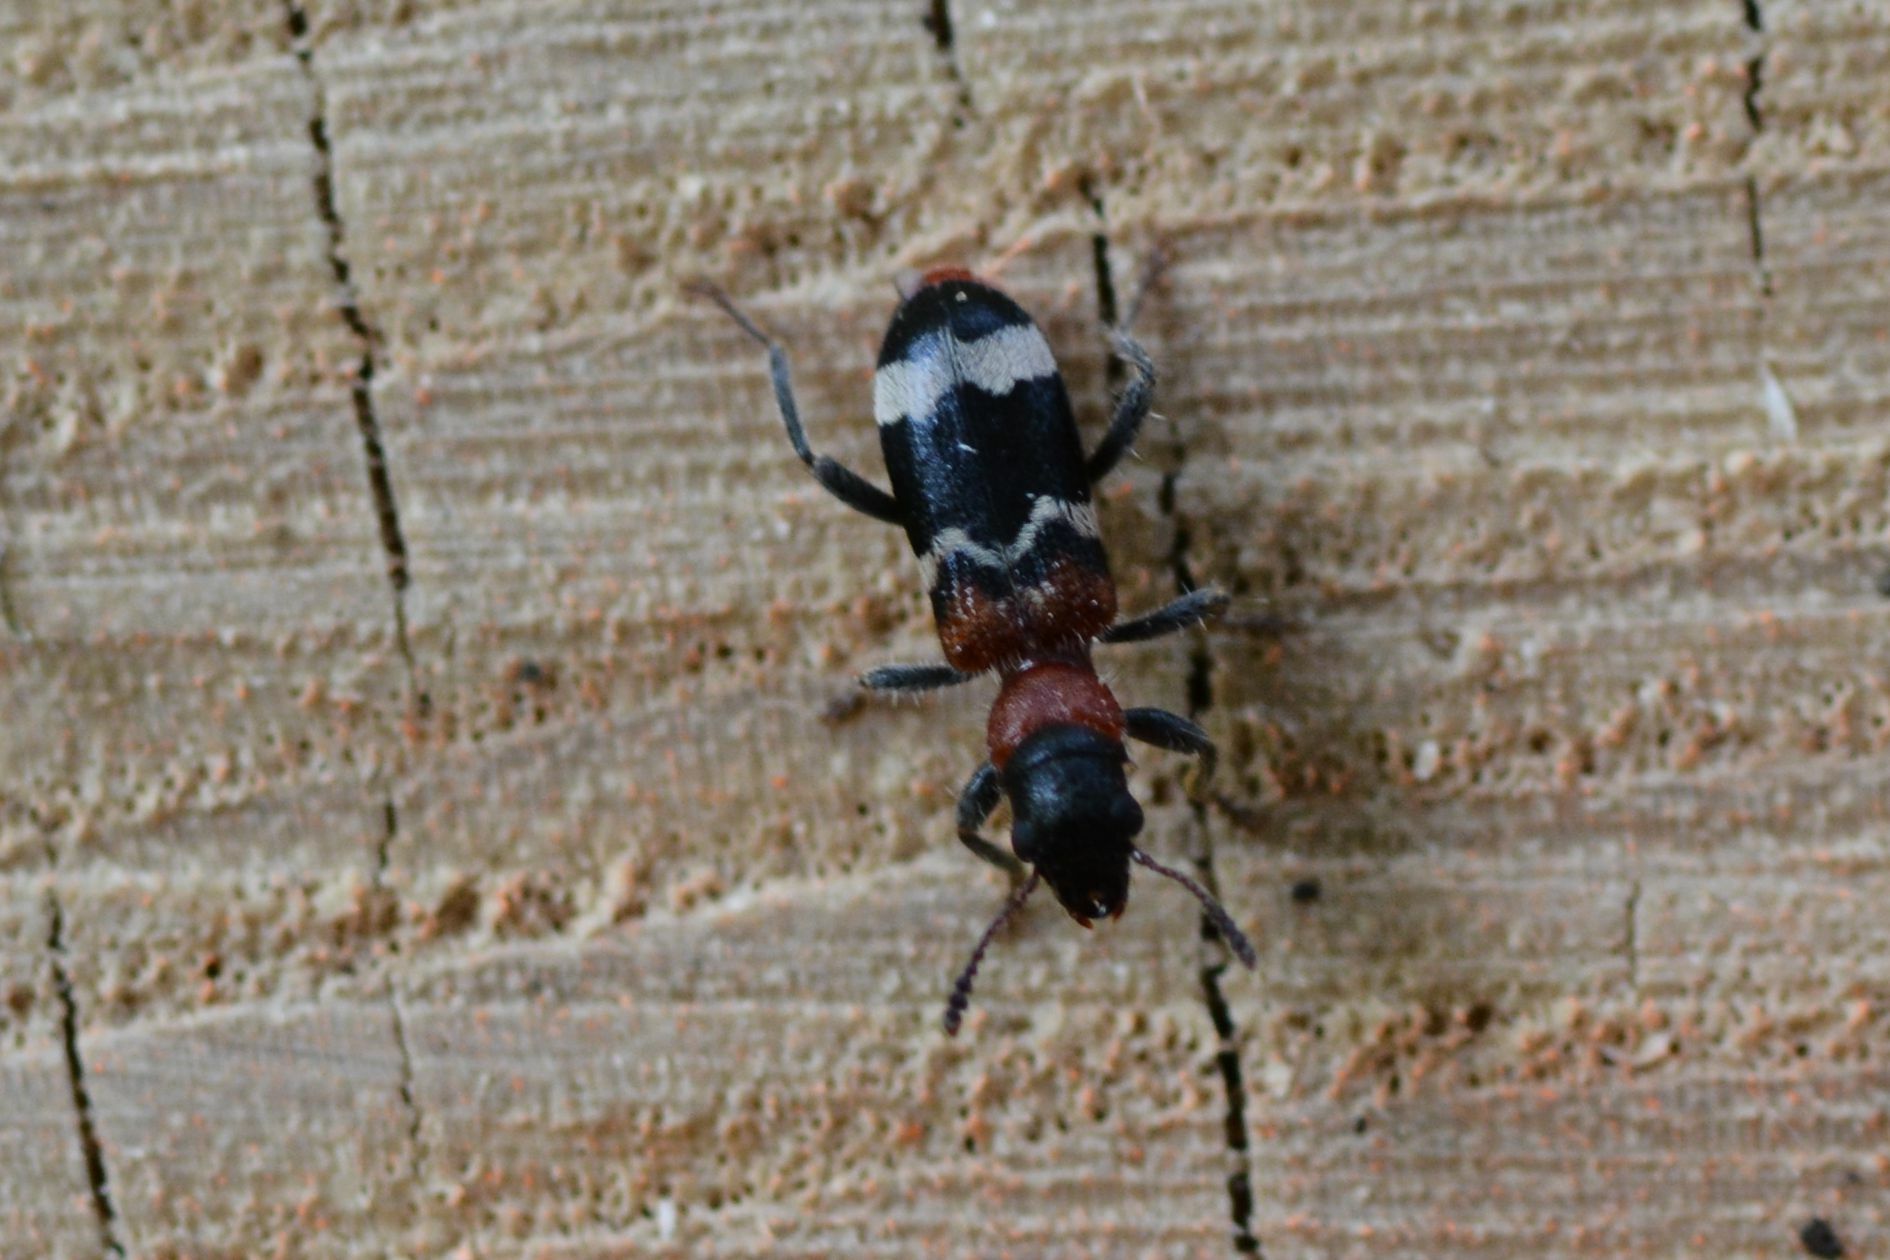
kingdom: Animalia
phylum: Arthropoda
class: Insecta
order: Coleoptera
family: Cleridae
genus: Thanasimus
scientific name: Thanasimus formicarius
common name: Ant beetle
